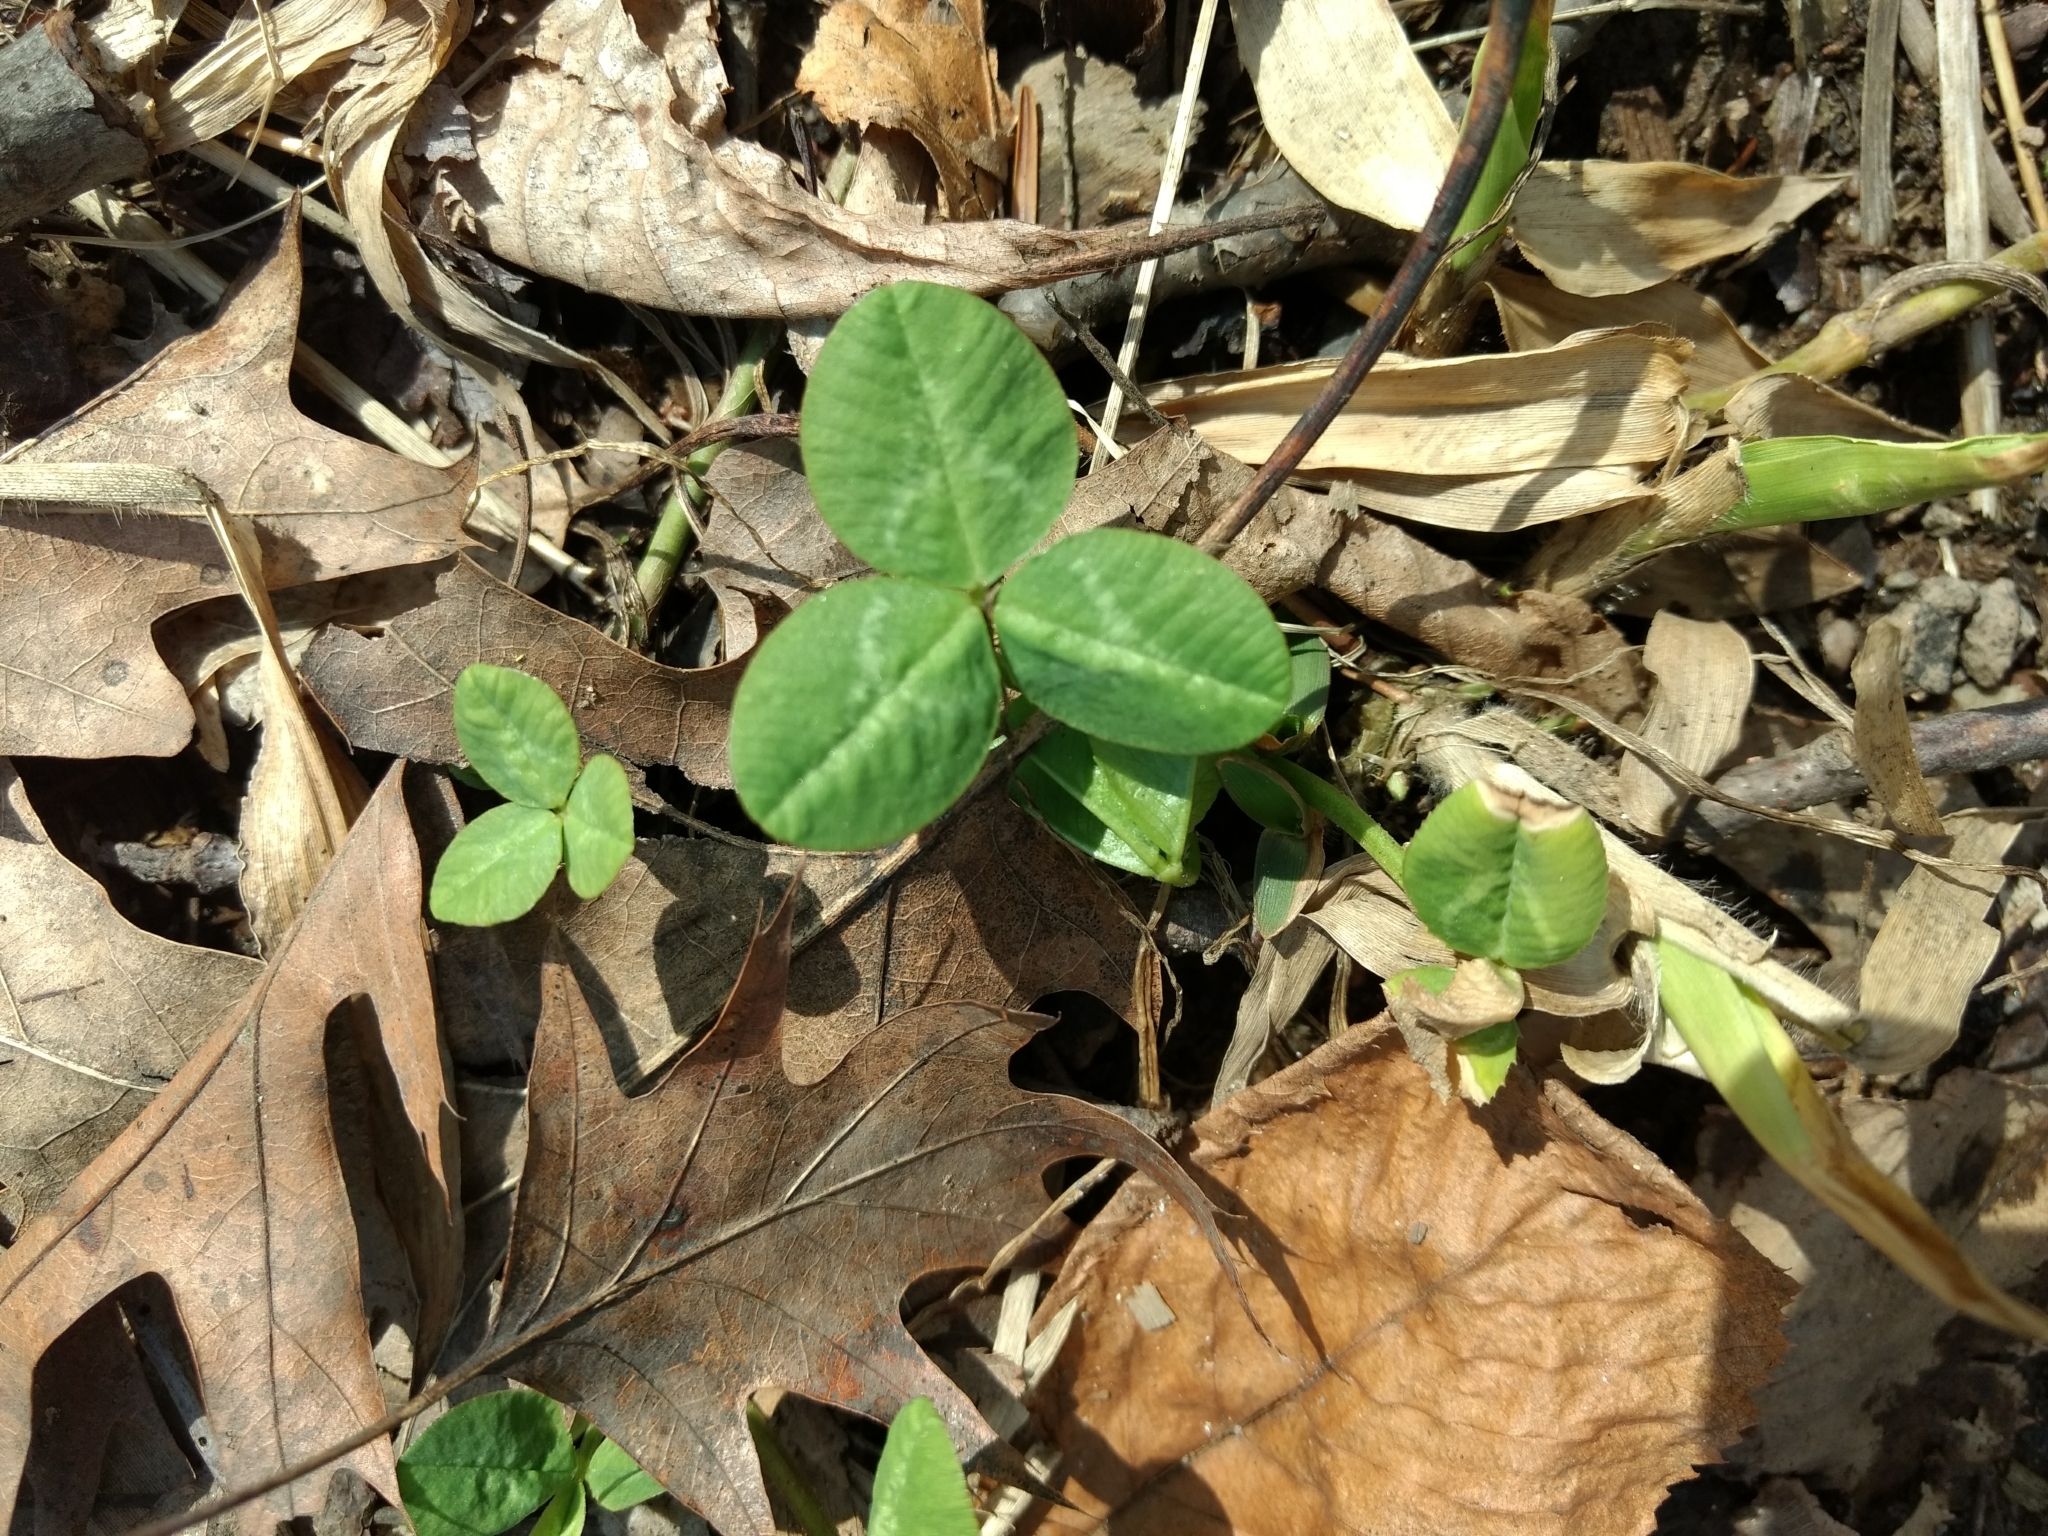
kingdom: Plantae
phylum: Tracheophyta
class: Magnoliopsida
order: Fabales
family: Fabaceae
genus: Trifolium
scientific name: Trifolium repens
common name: White clover
